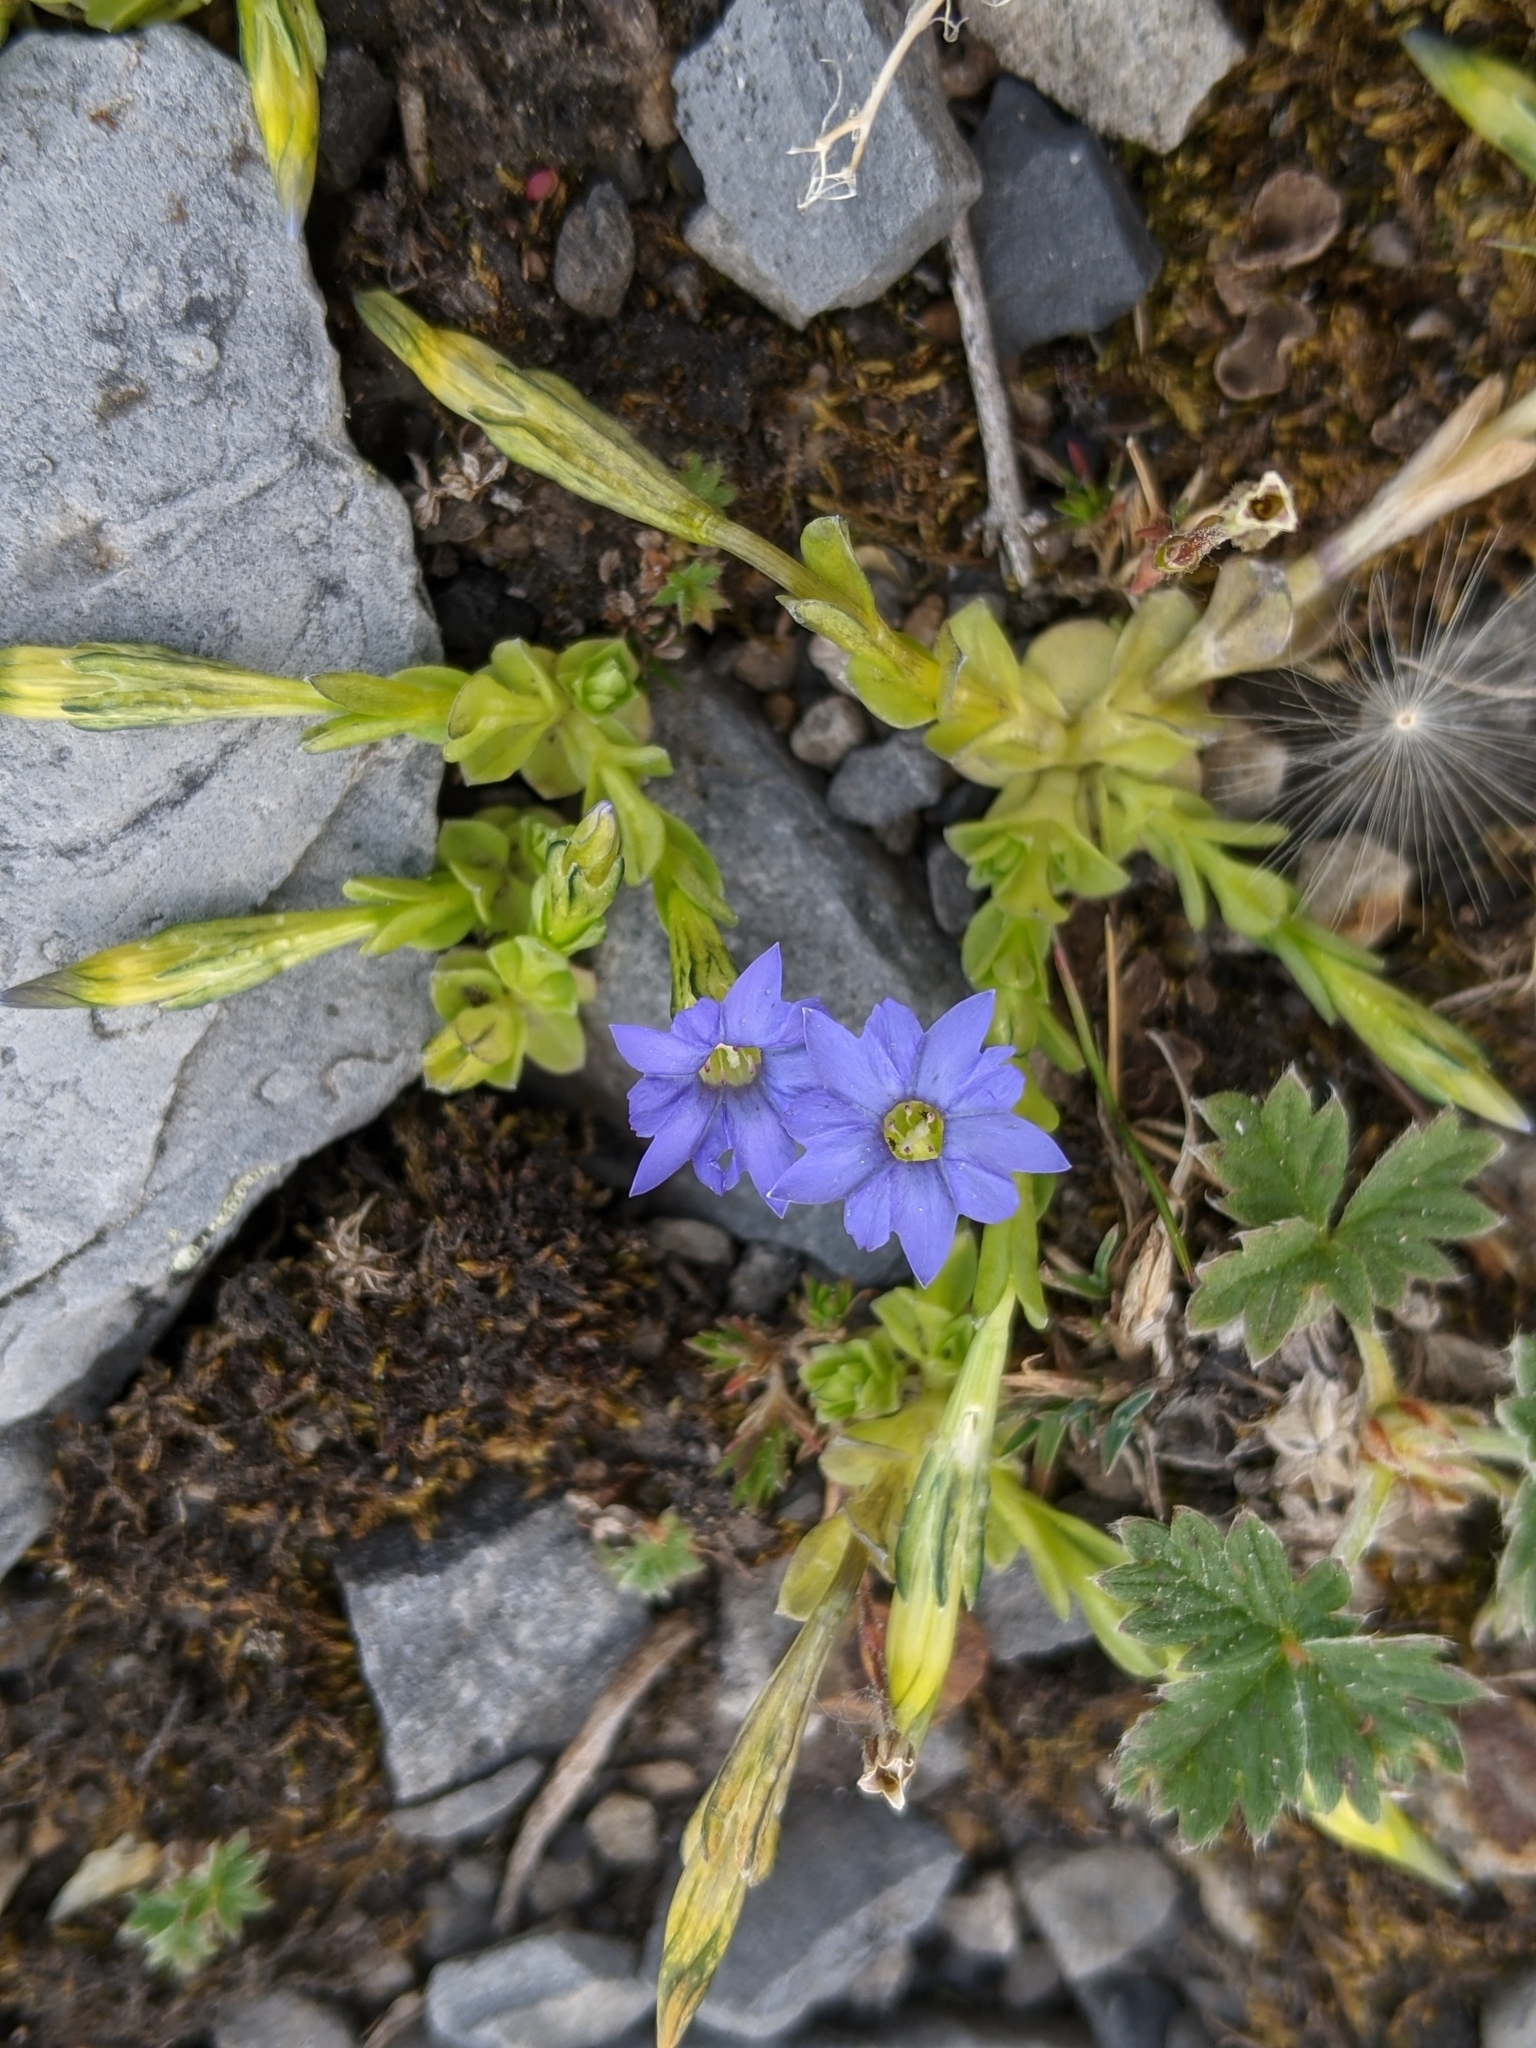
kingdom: Plantae
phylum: Tracheophyta
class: Magnoliopsida
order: Gentianales
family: Gentianaceae
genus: Gentiana
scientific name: Gentiana prostrata
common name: Moss gentian
